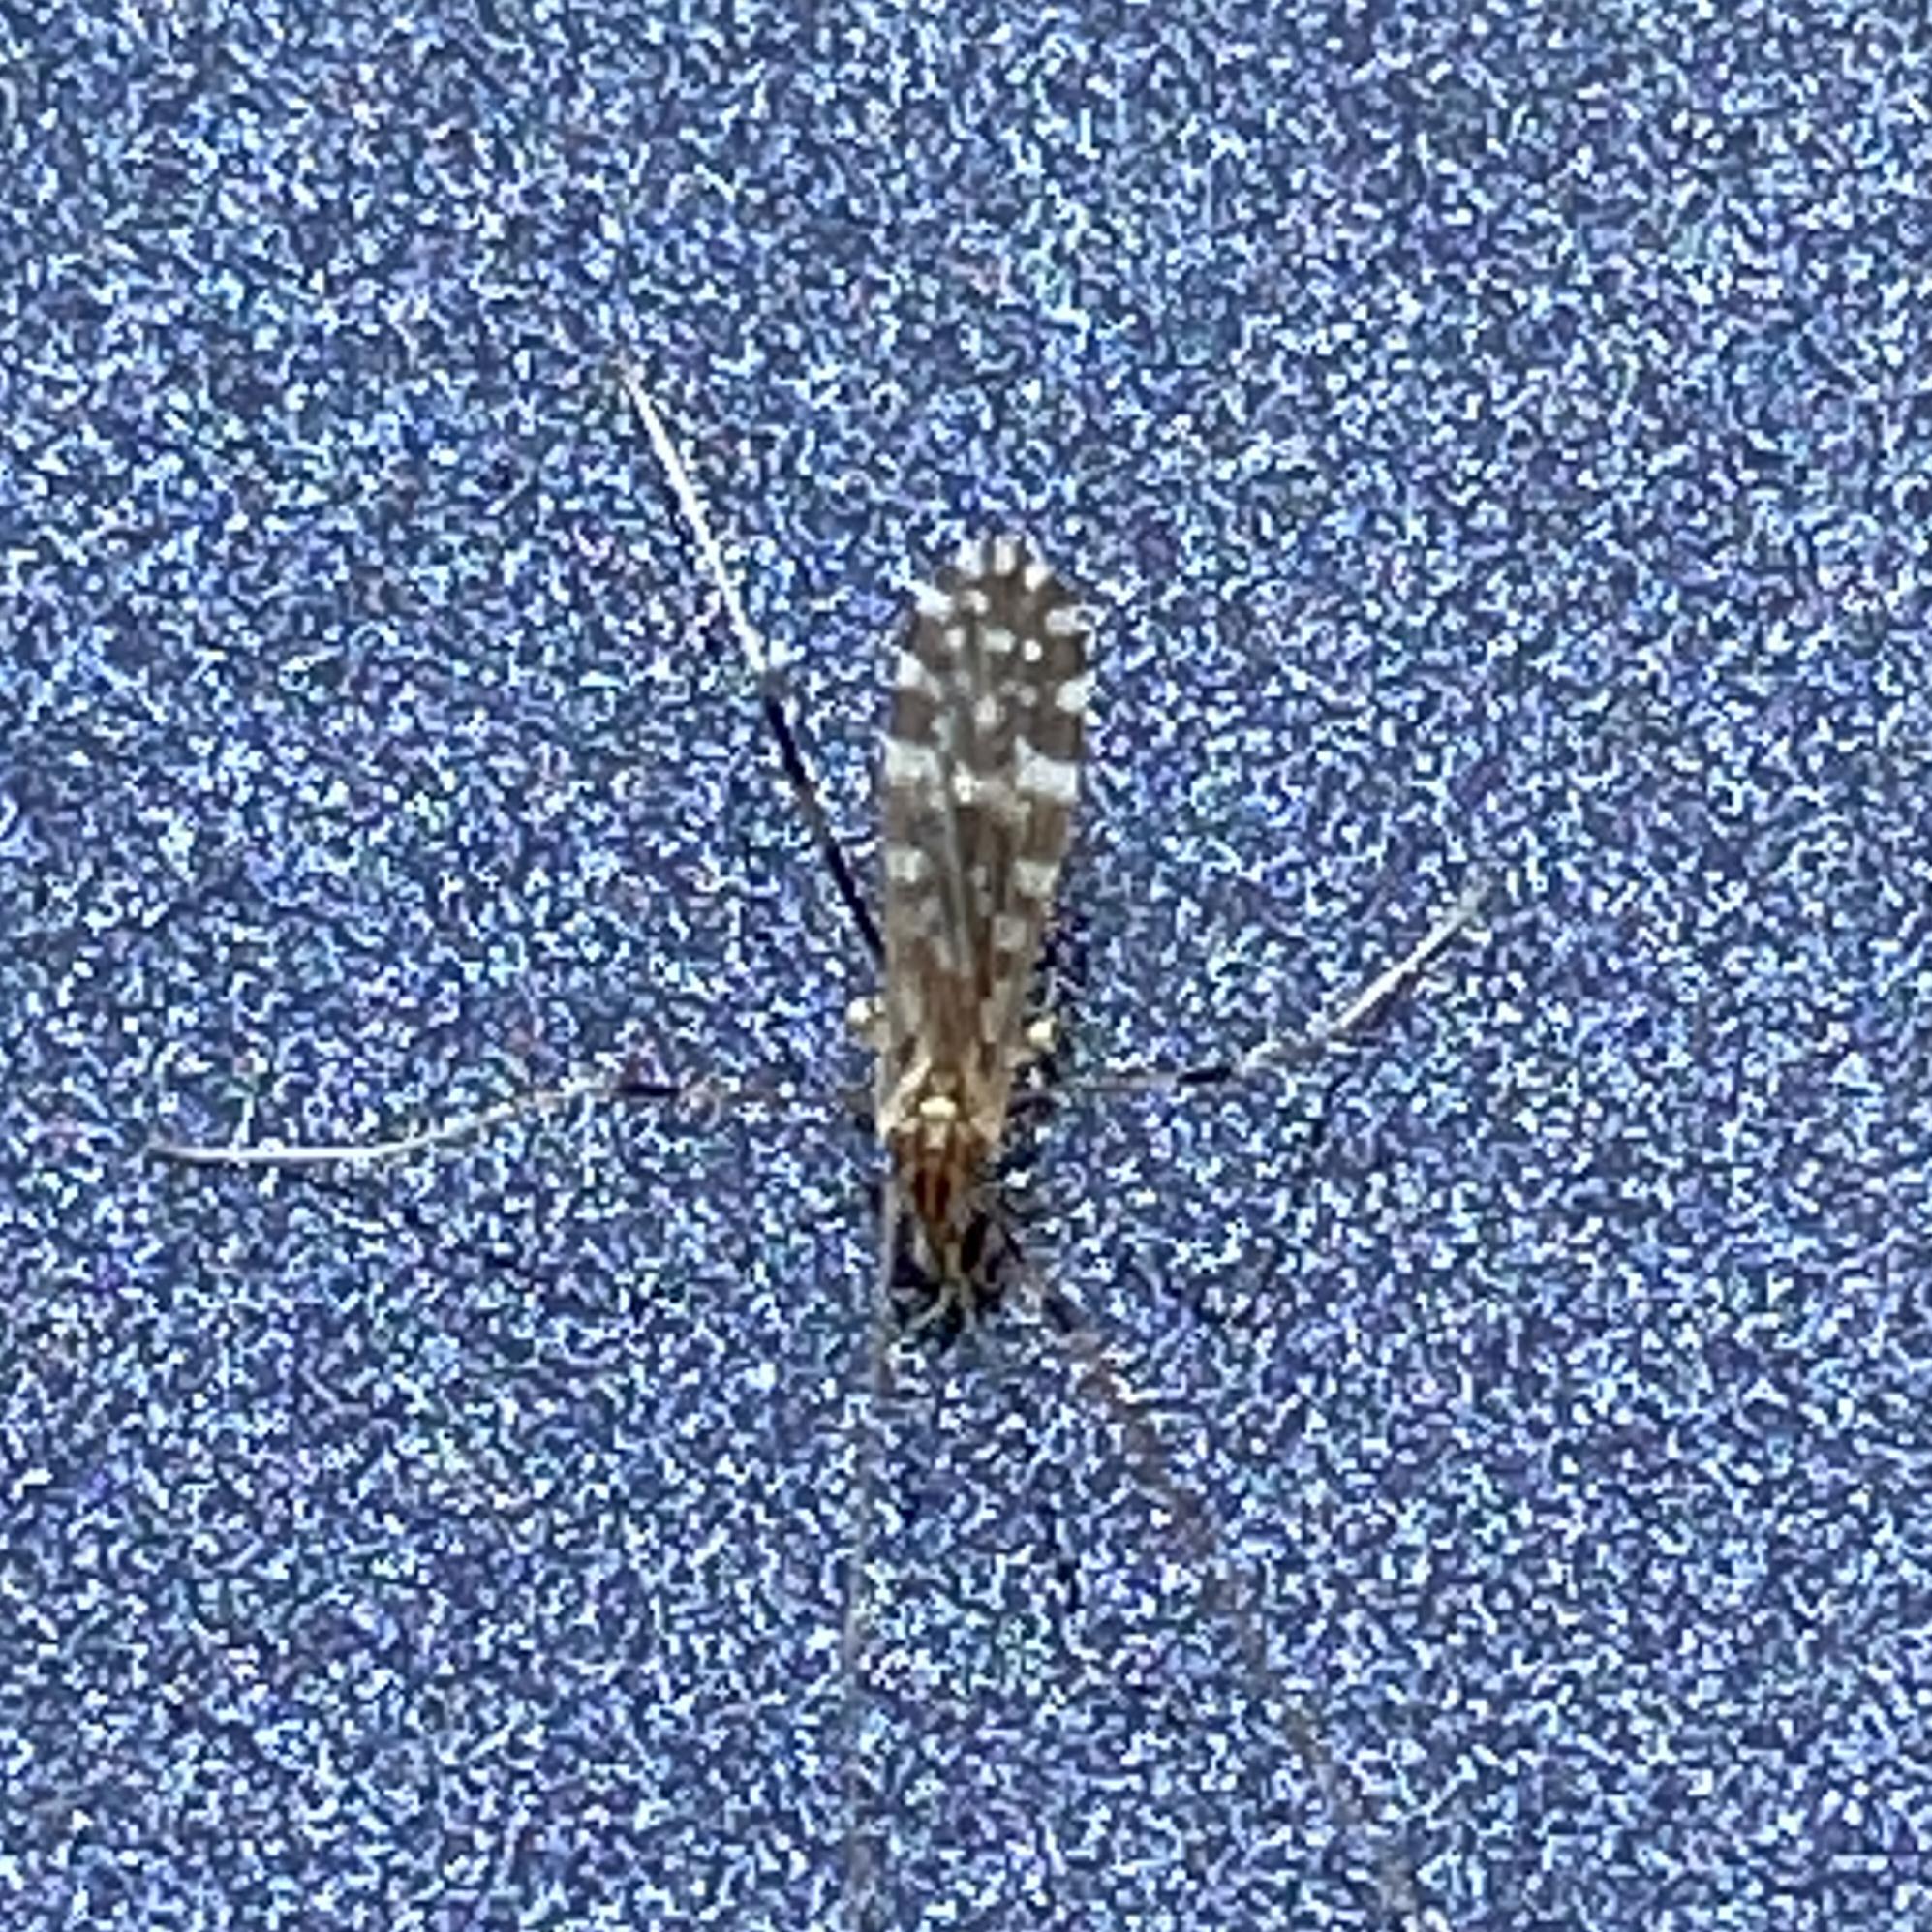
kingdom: Animalia
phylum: Arthropoda
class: Insecta
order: Diptera
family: Limoniidae
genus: Erioptera
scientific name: Erioptera caliptera
